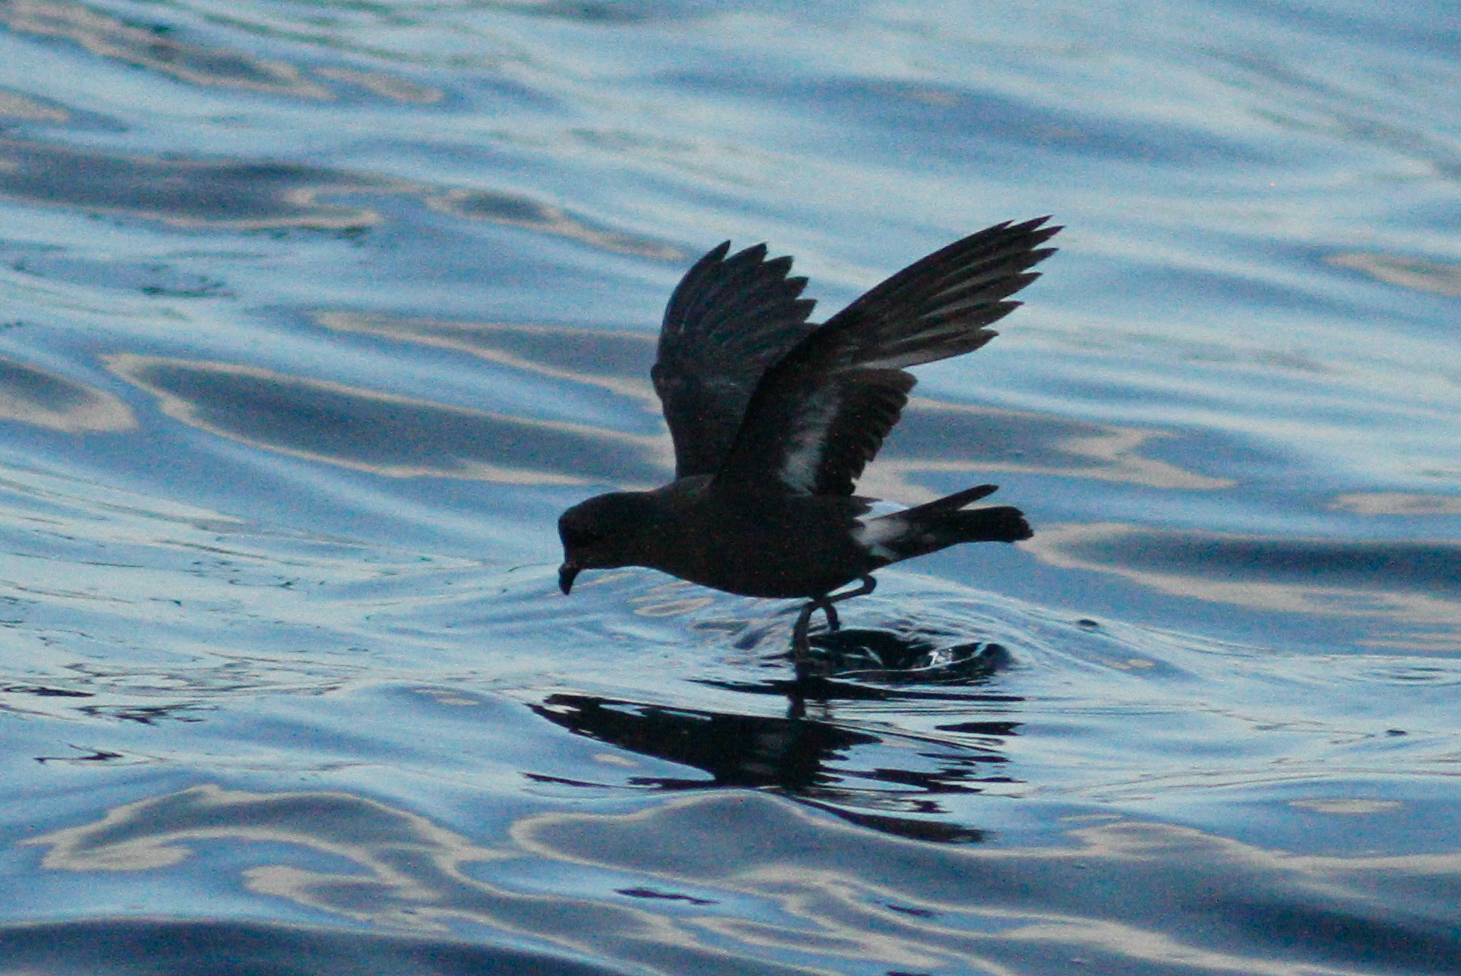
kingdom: Animalia
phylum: Chordata
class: Aves
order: Procellariiformes
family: Hydrobatidae
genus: Hydrobates
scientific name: Hydrobates pelagicus
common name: European storm-petrel
